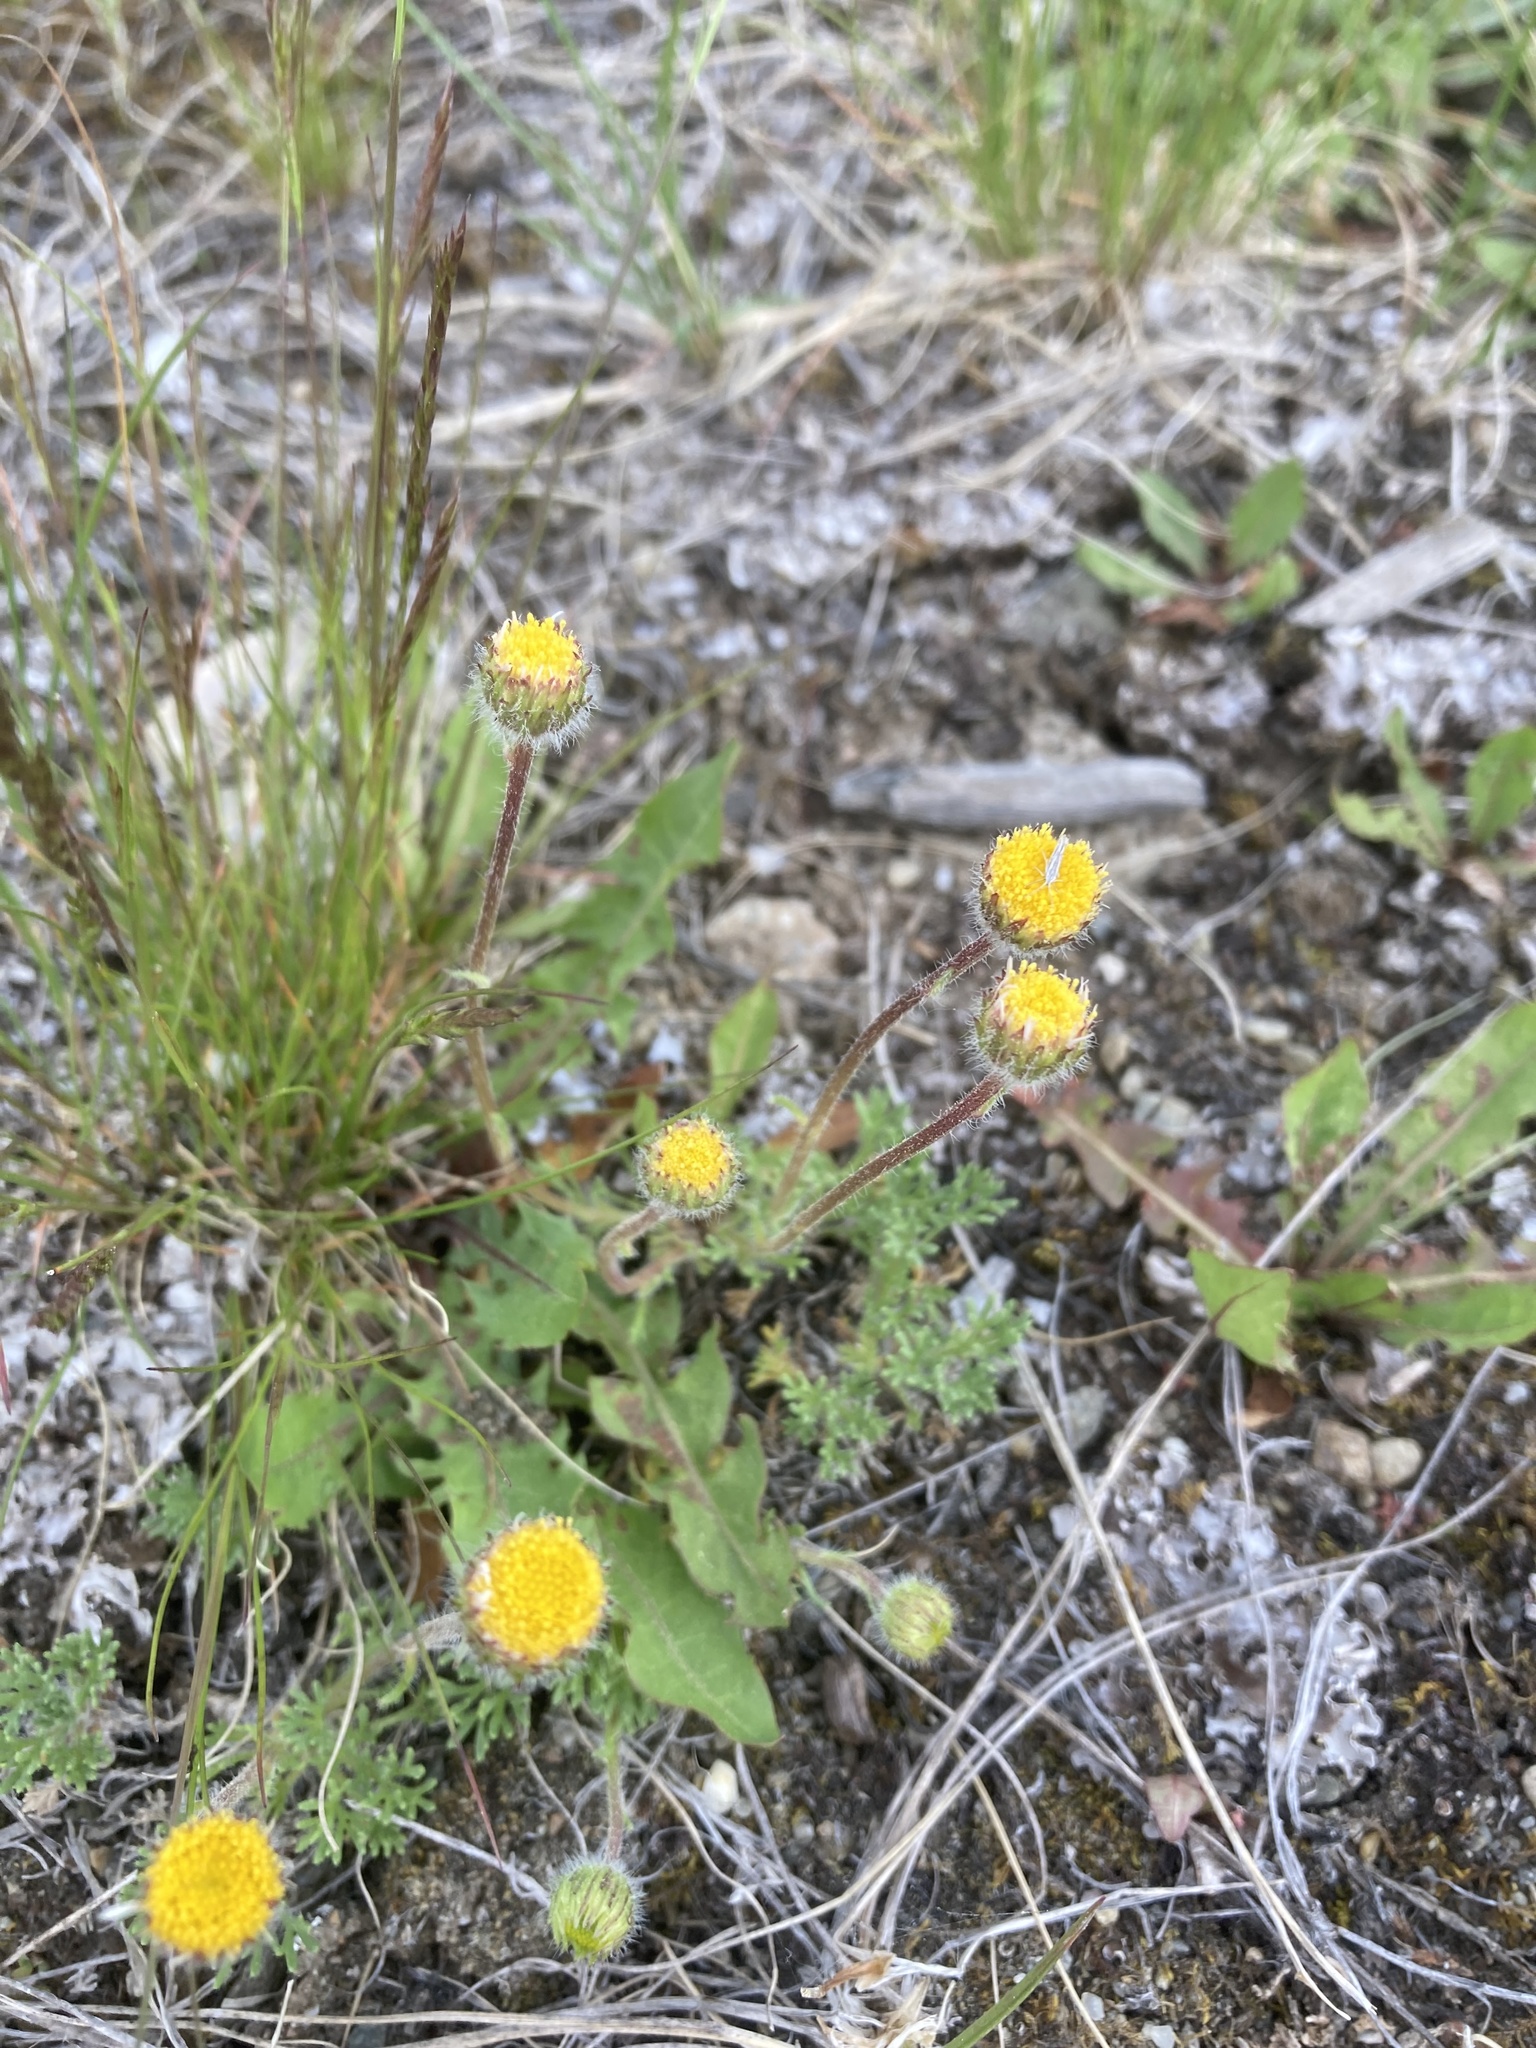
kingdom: Plantae
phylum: Tracheophyta
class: Magnoliopsida
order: Asterales
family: Asteraceae
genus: Erigeron
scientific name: Erigeron compositus
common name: Dwarf mountain fleabane
